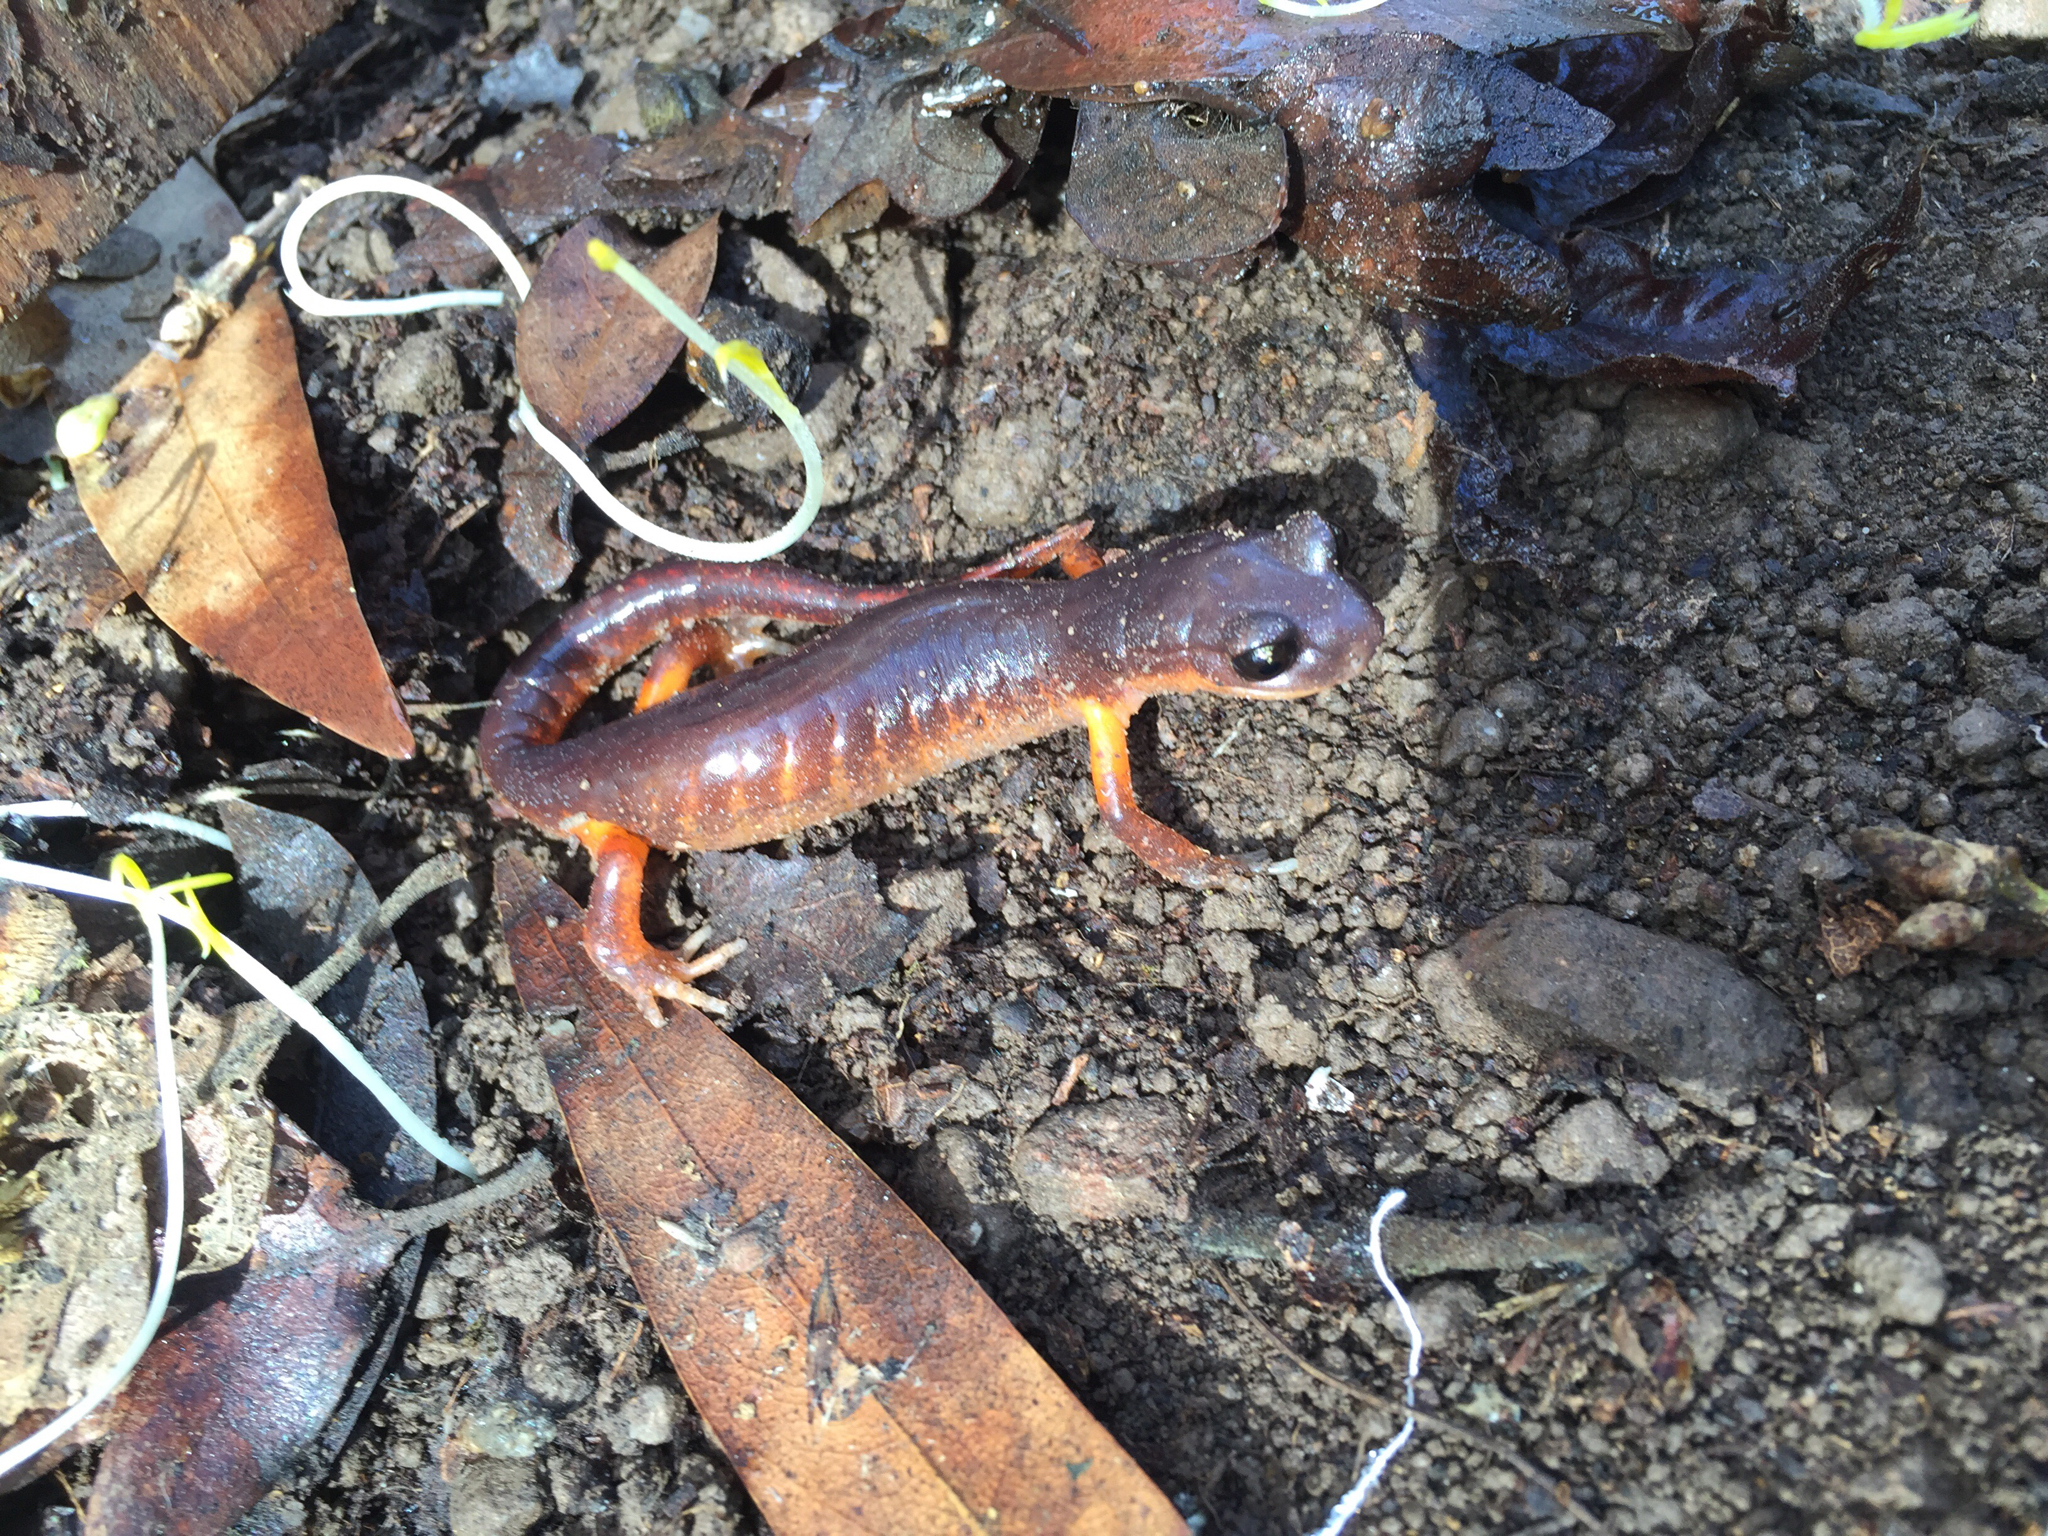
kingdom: Animalia
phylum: Chordata
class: Amphibia
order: Caudata
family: Plethodontidae
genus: Ensatina
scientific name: Ensatina eschscholtzii
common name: Ensatina
